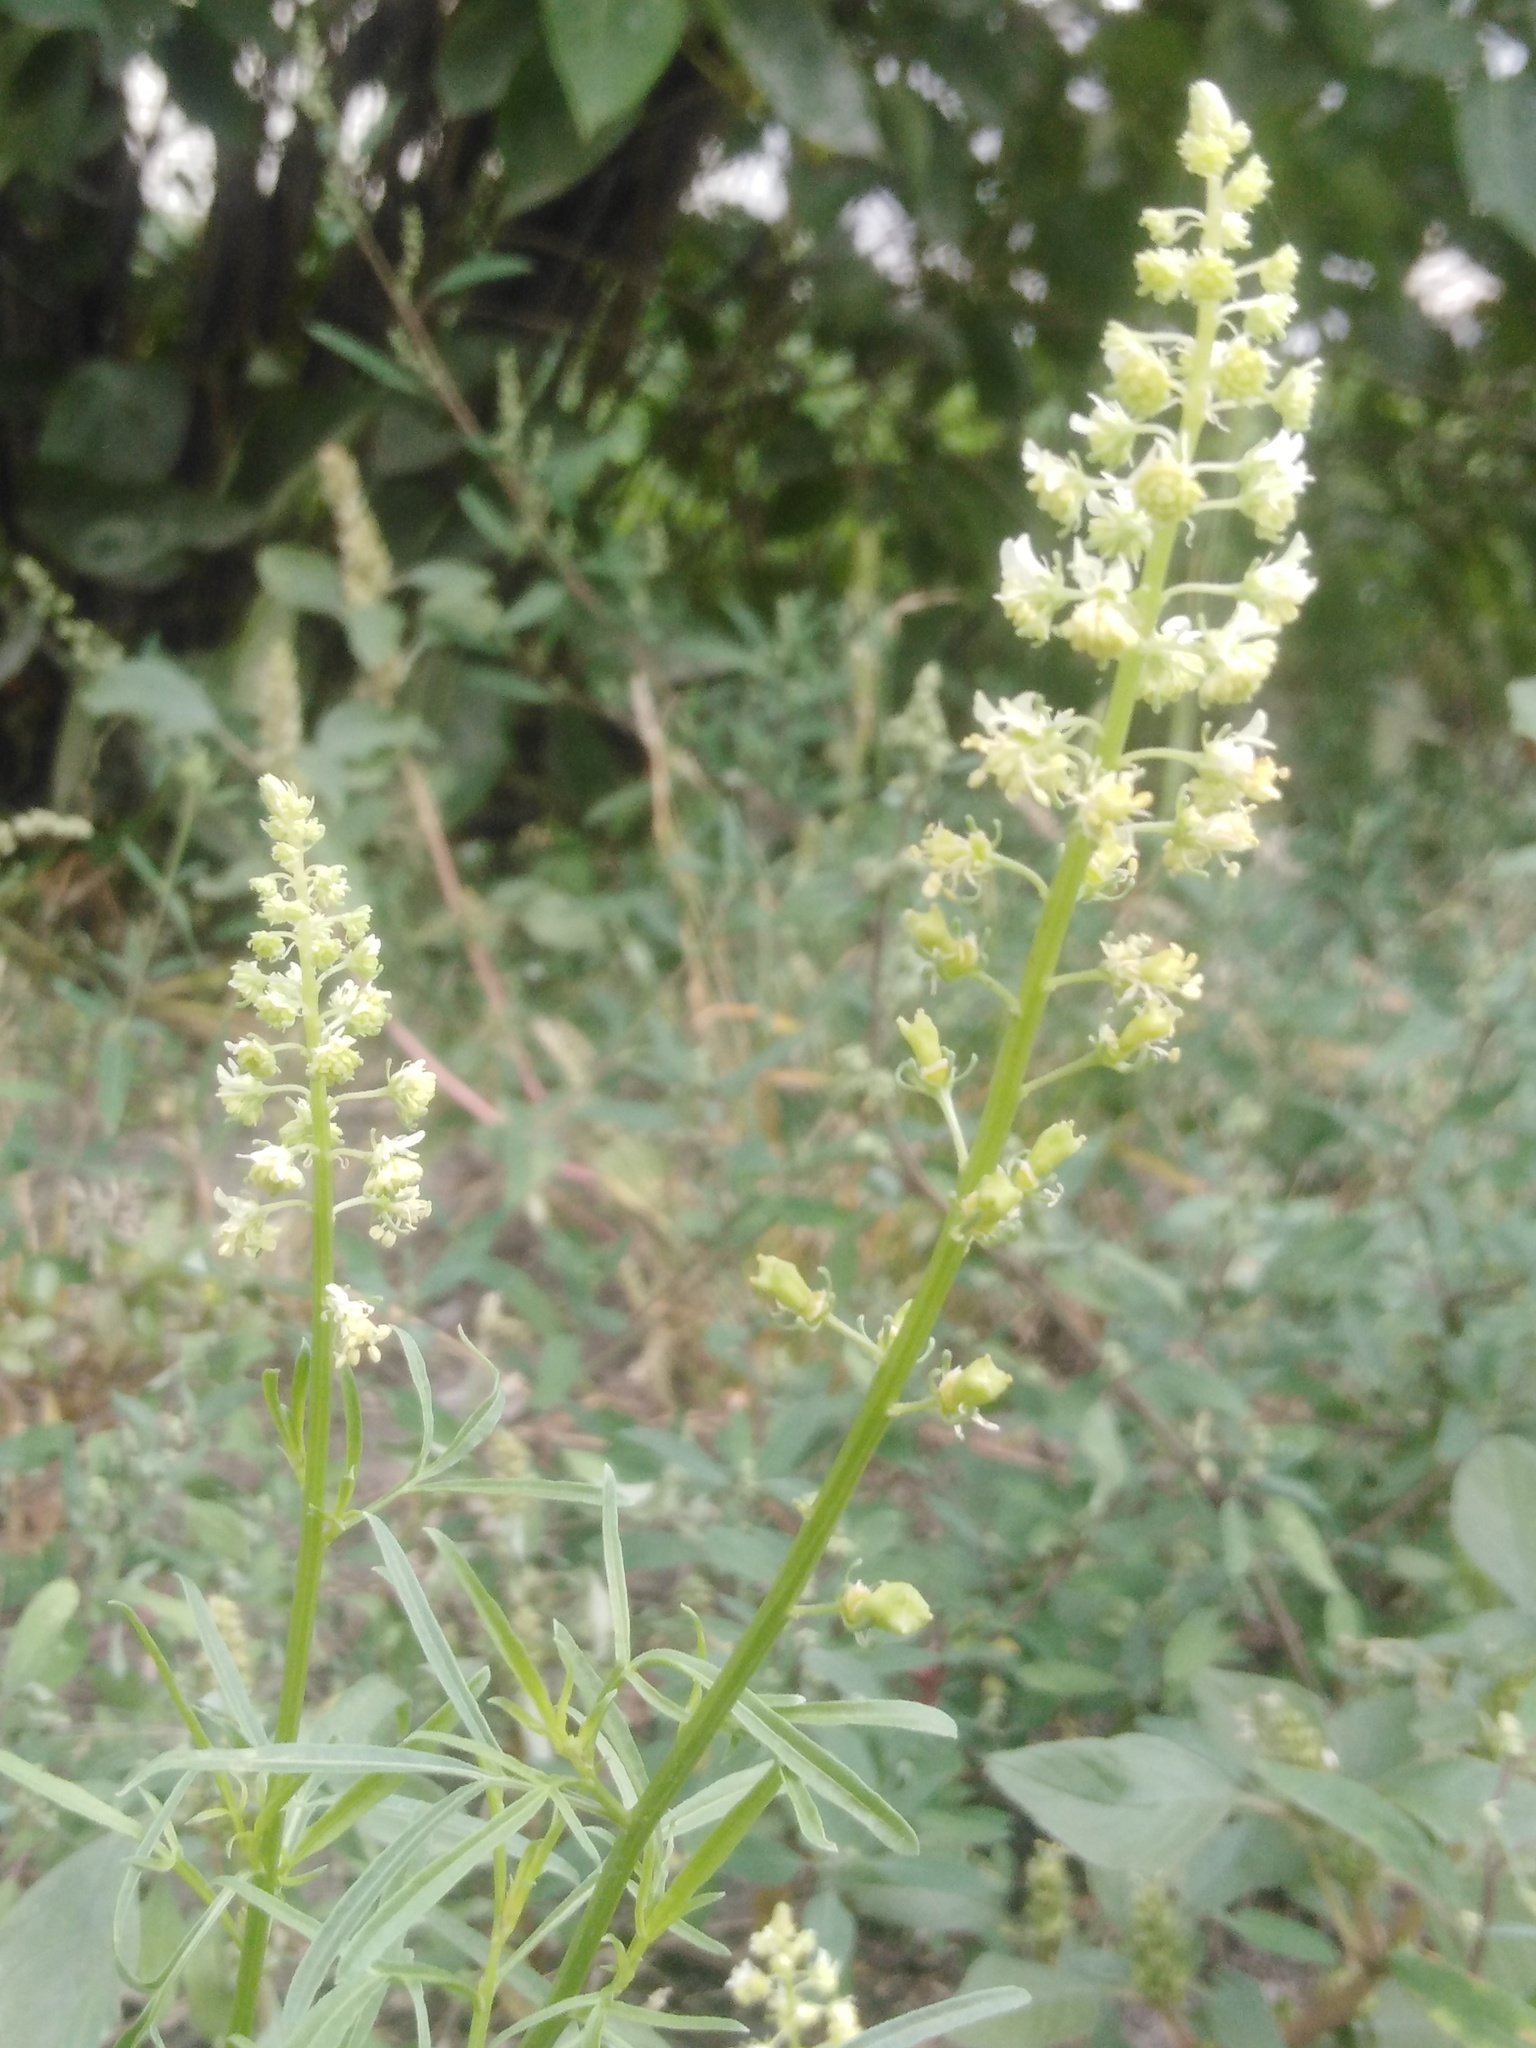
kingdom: Plantae
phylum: Tracheophyta
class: Magnoliopsida
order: Brassicales
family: Resedaceae
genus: Reseda
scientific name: Reseda lutea
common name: Wild mignonette
